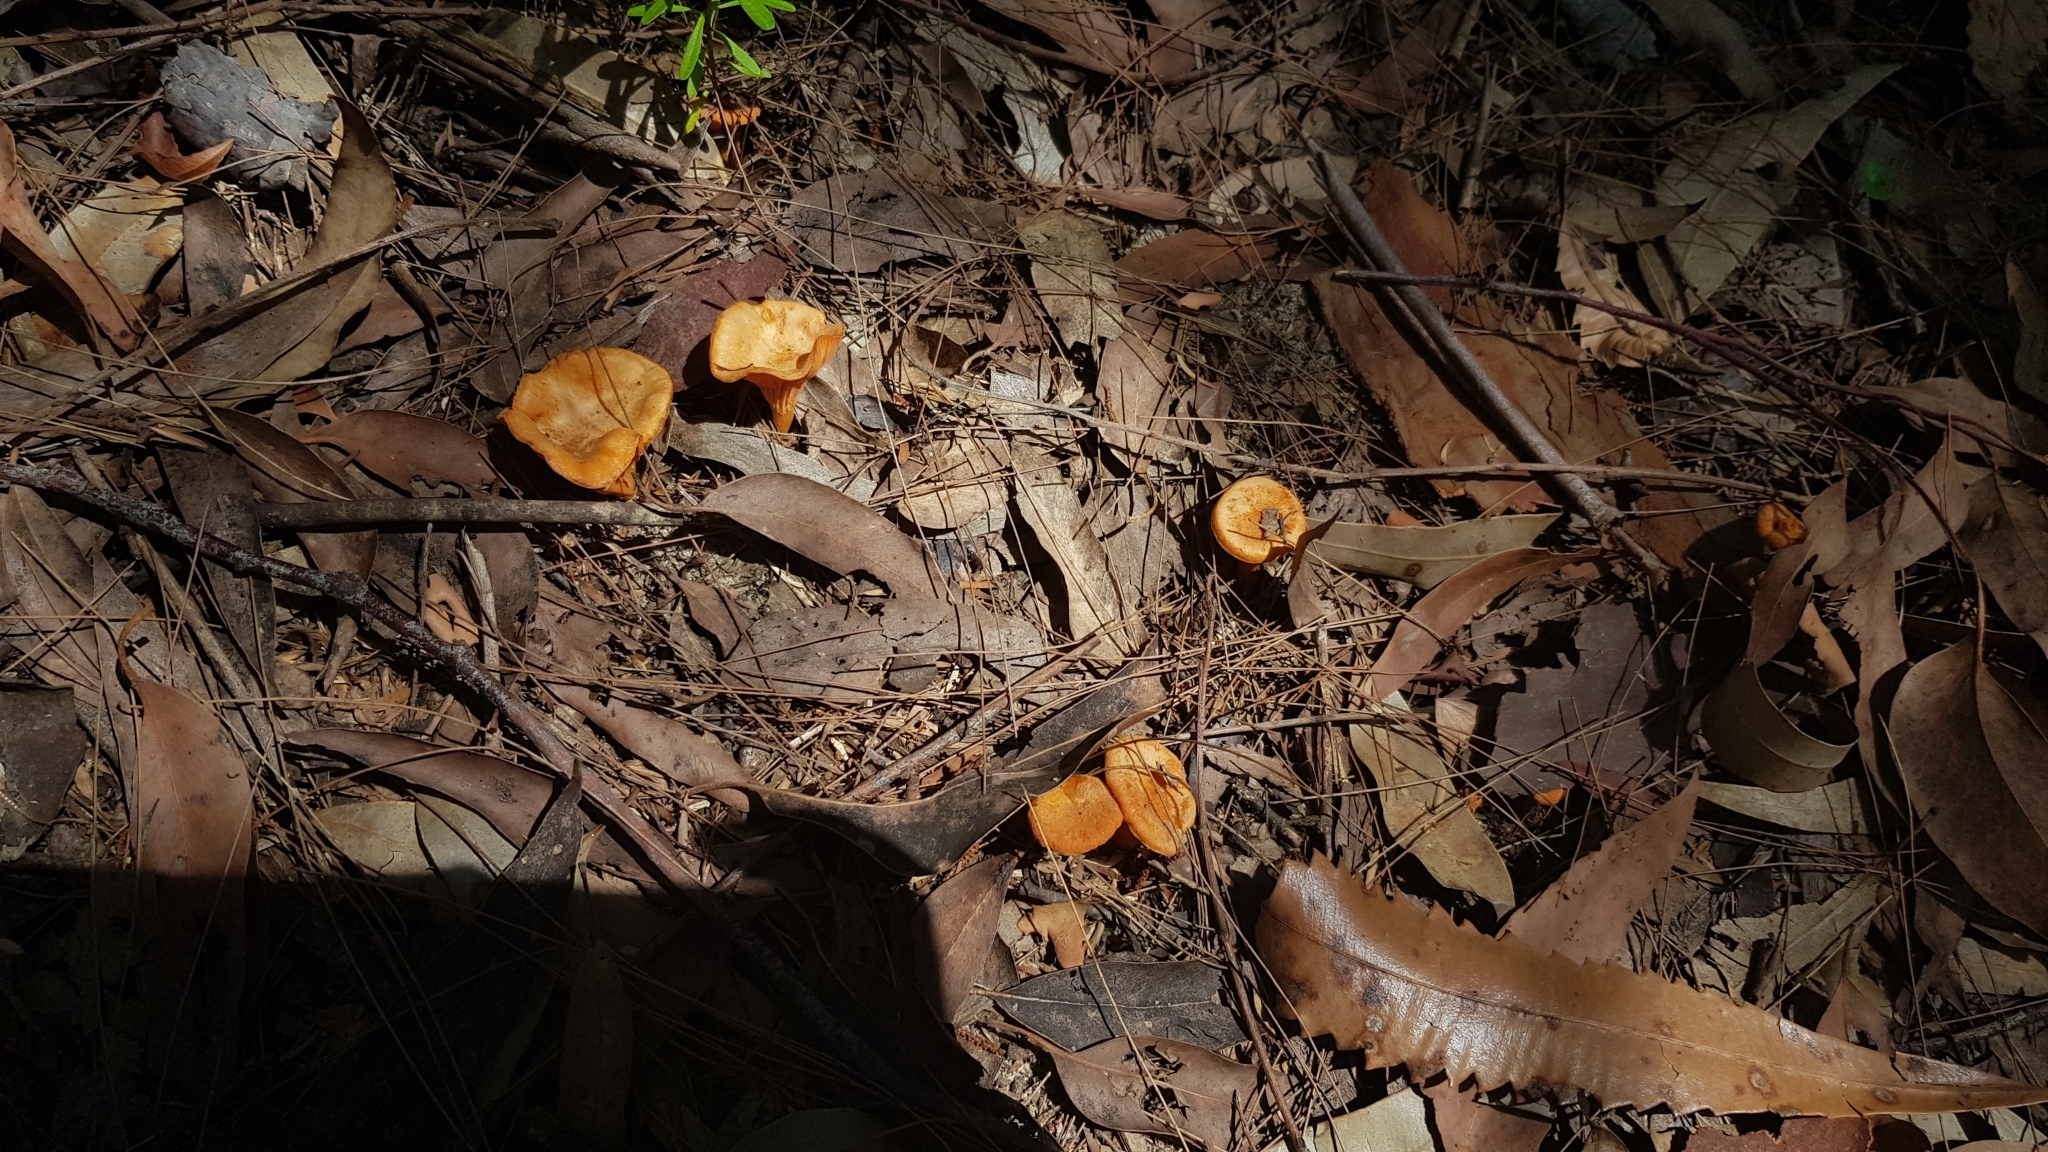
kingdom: Fungi
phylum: Basidiomycota
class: Agaricomycetes
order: Cantharellales
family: Hydnaceae
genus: Cantharellus
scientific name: Cantharellus
